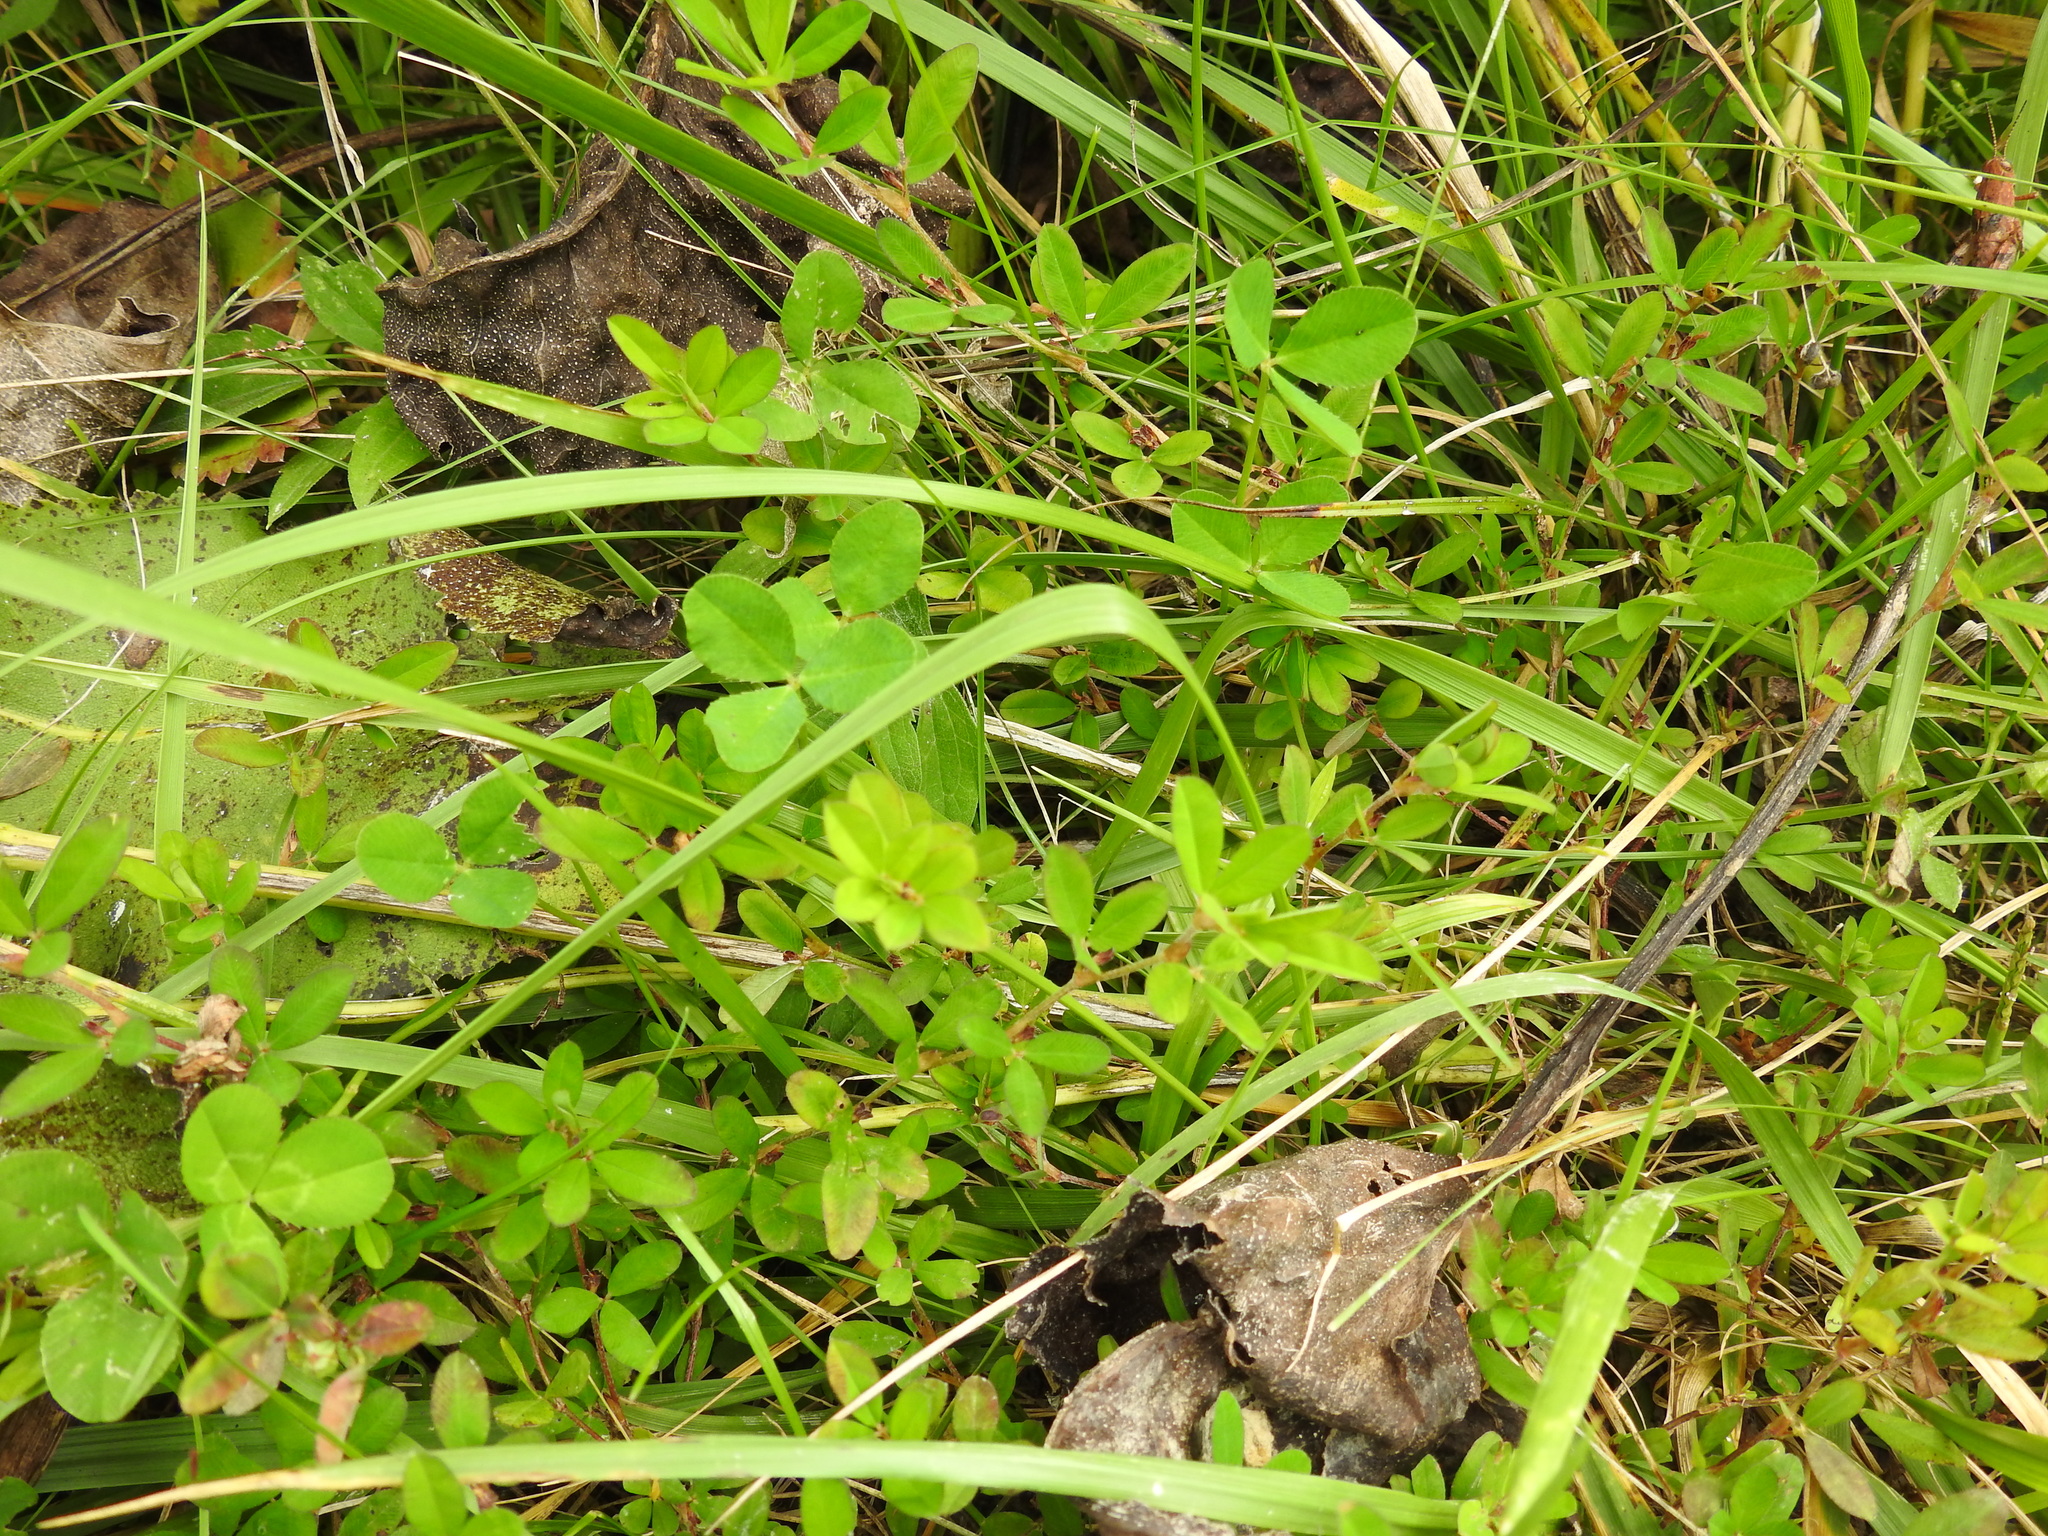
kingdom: Plantae
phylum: Tracheophyta
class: Magnoliopsida
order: Fabales
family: Fabaceae
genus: Kummerowia
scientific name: Kummerowia striata
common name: Japanese clover
